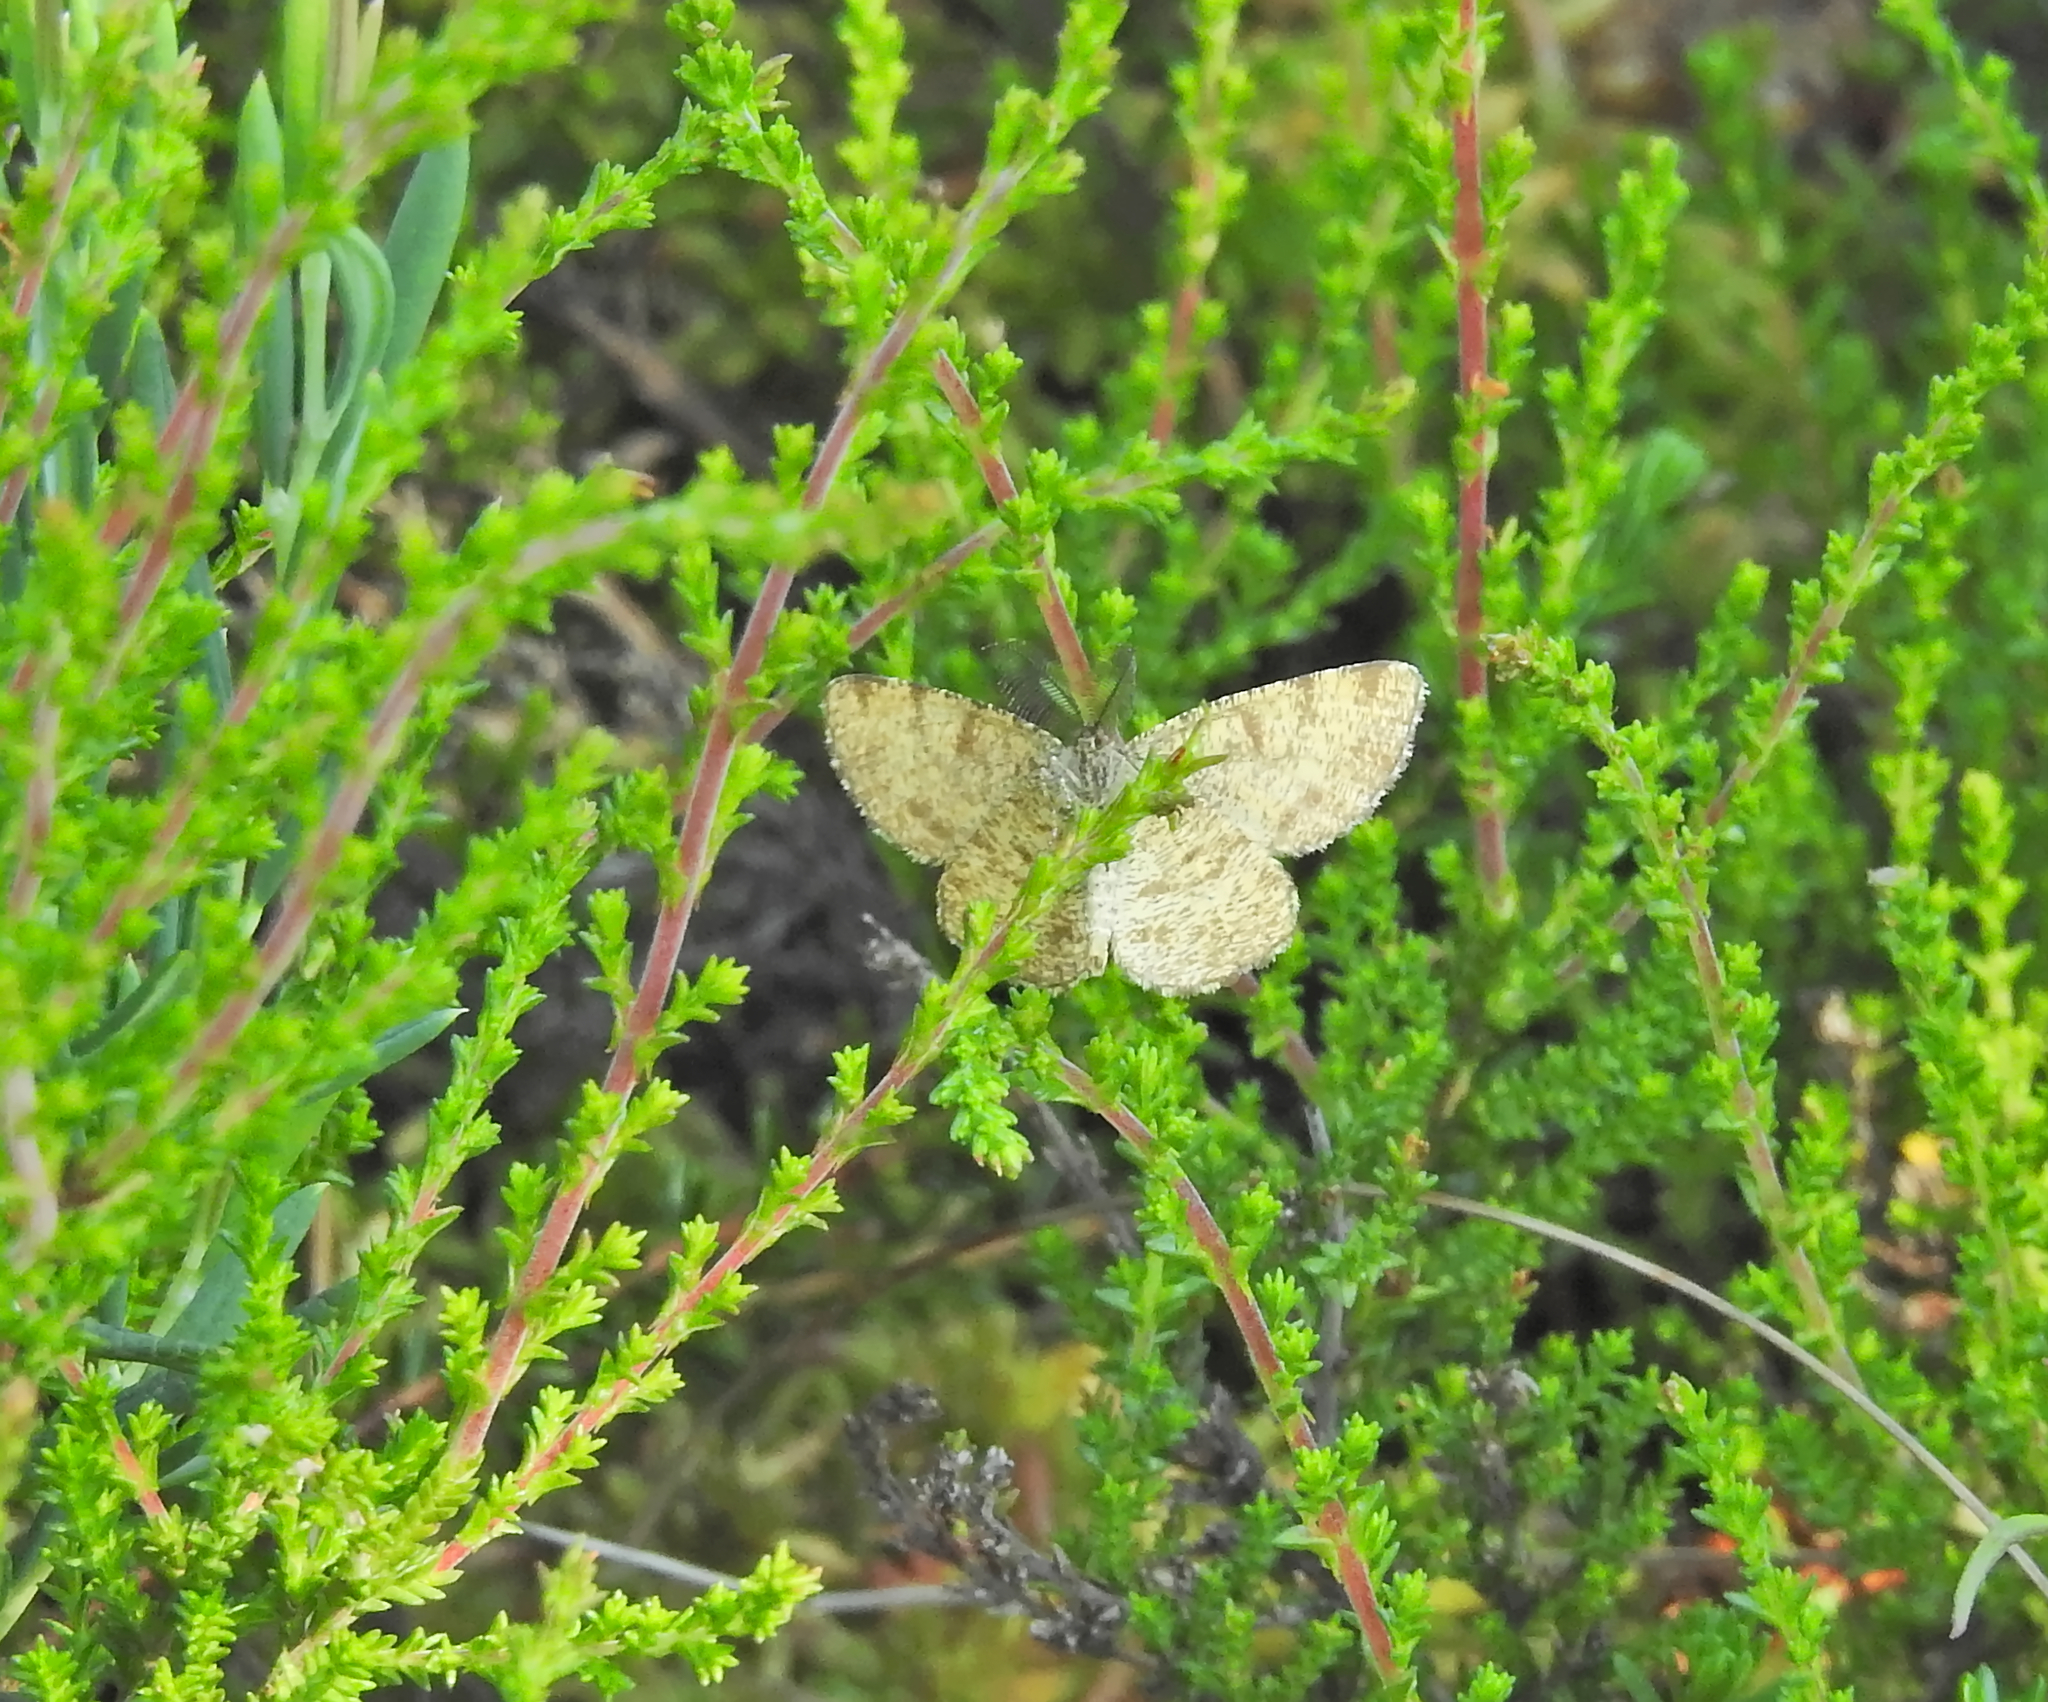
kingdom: Animalia
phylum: Arthropoda
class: Insecta
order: Lepidoptera
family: Geometridae
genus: Ematurga
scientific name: Ematurga atomaria
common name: Common heath
